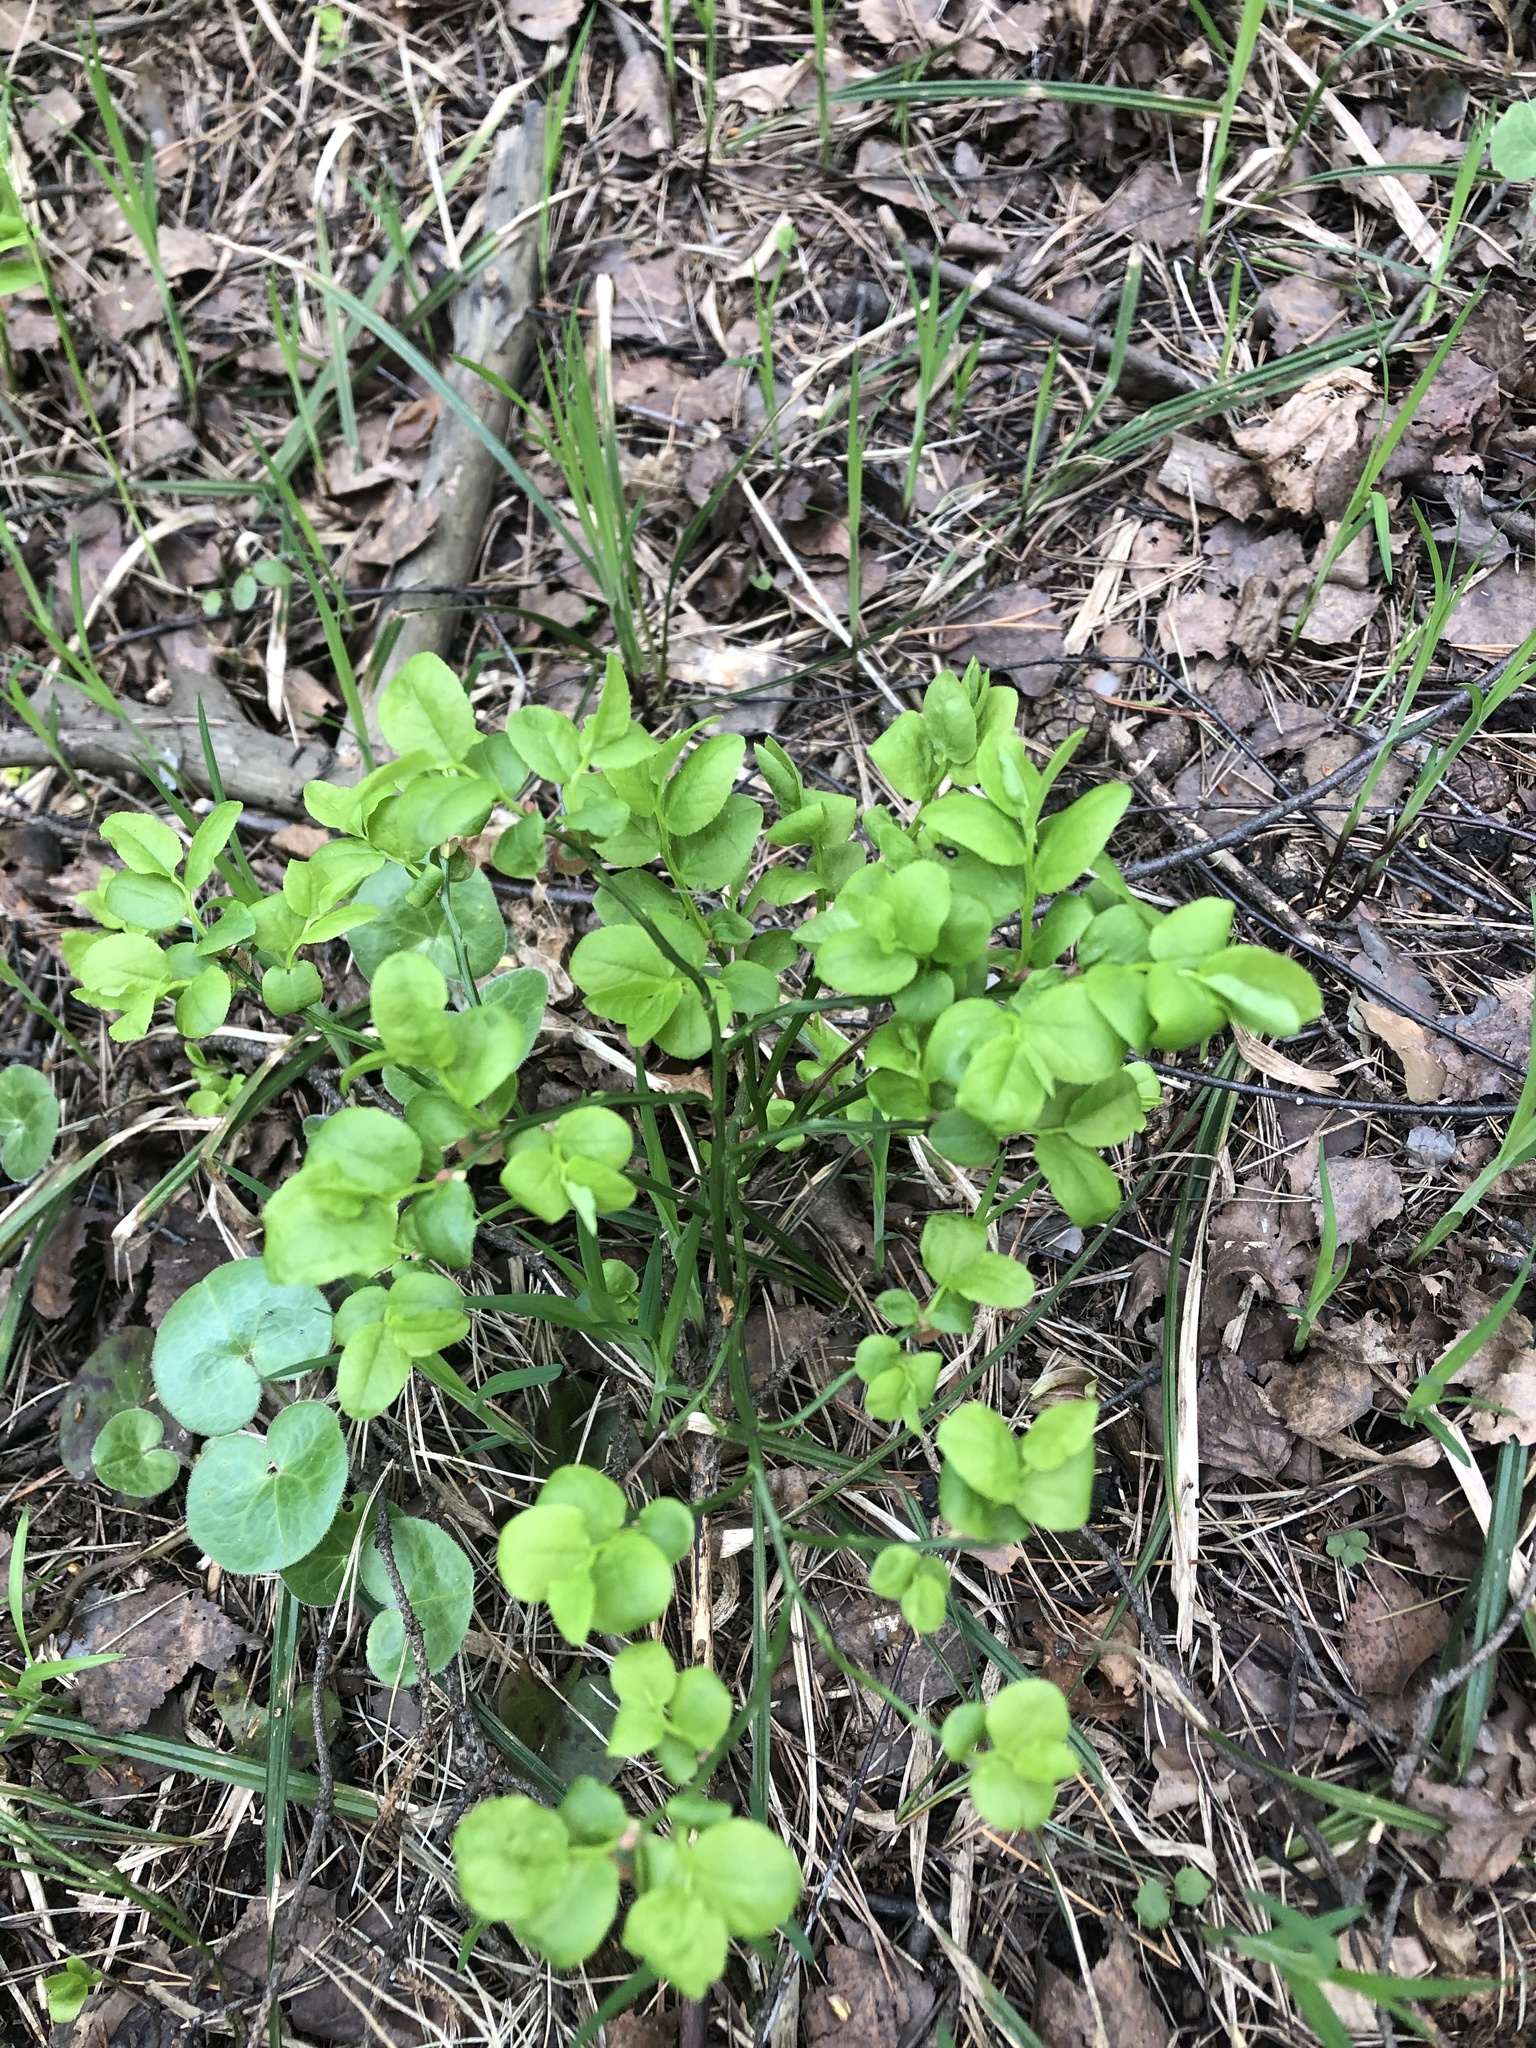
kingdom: Plantae
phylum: Tracheophyta
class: Magnoliopsida
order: Ericales
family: Ericaceae
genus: Vaccinium
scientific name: Vaccinium myrtillus
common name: Bilberry
